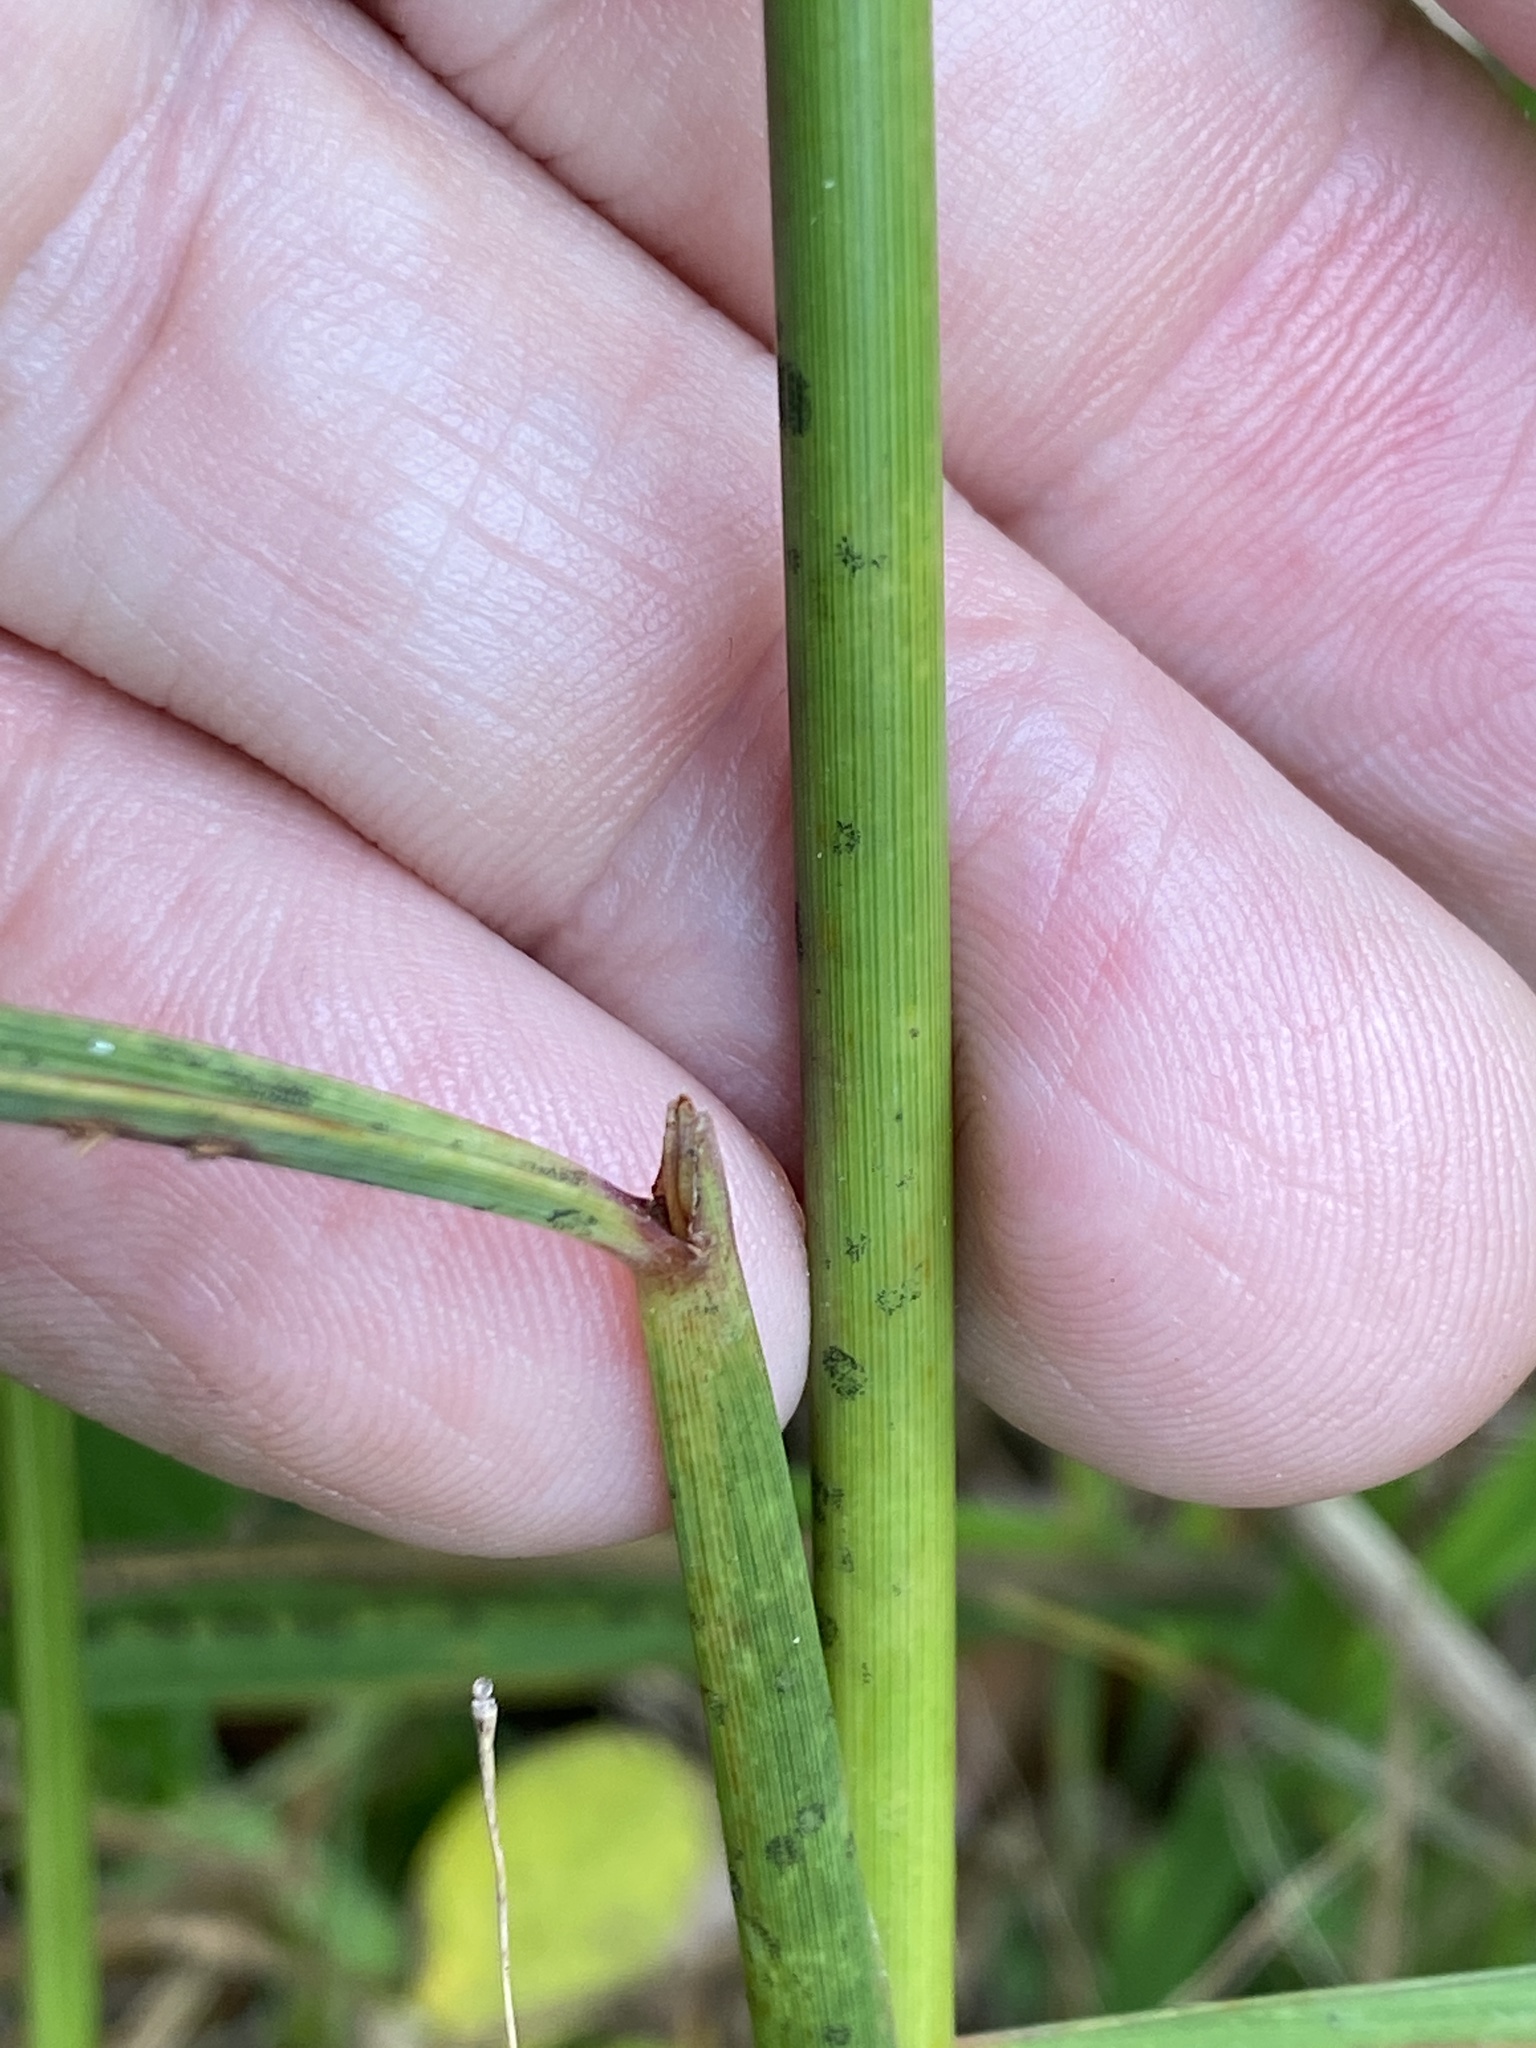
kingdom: Plantae
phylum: Tracheophyta
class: Liliopsida
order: Poales
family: Poaceae
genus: Sorghastrum
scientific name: Sorghastrum nutans
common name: Indian grass
